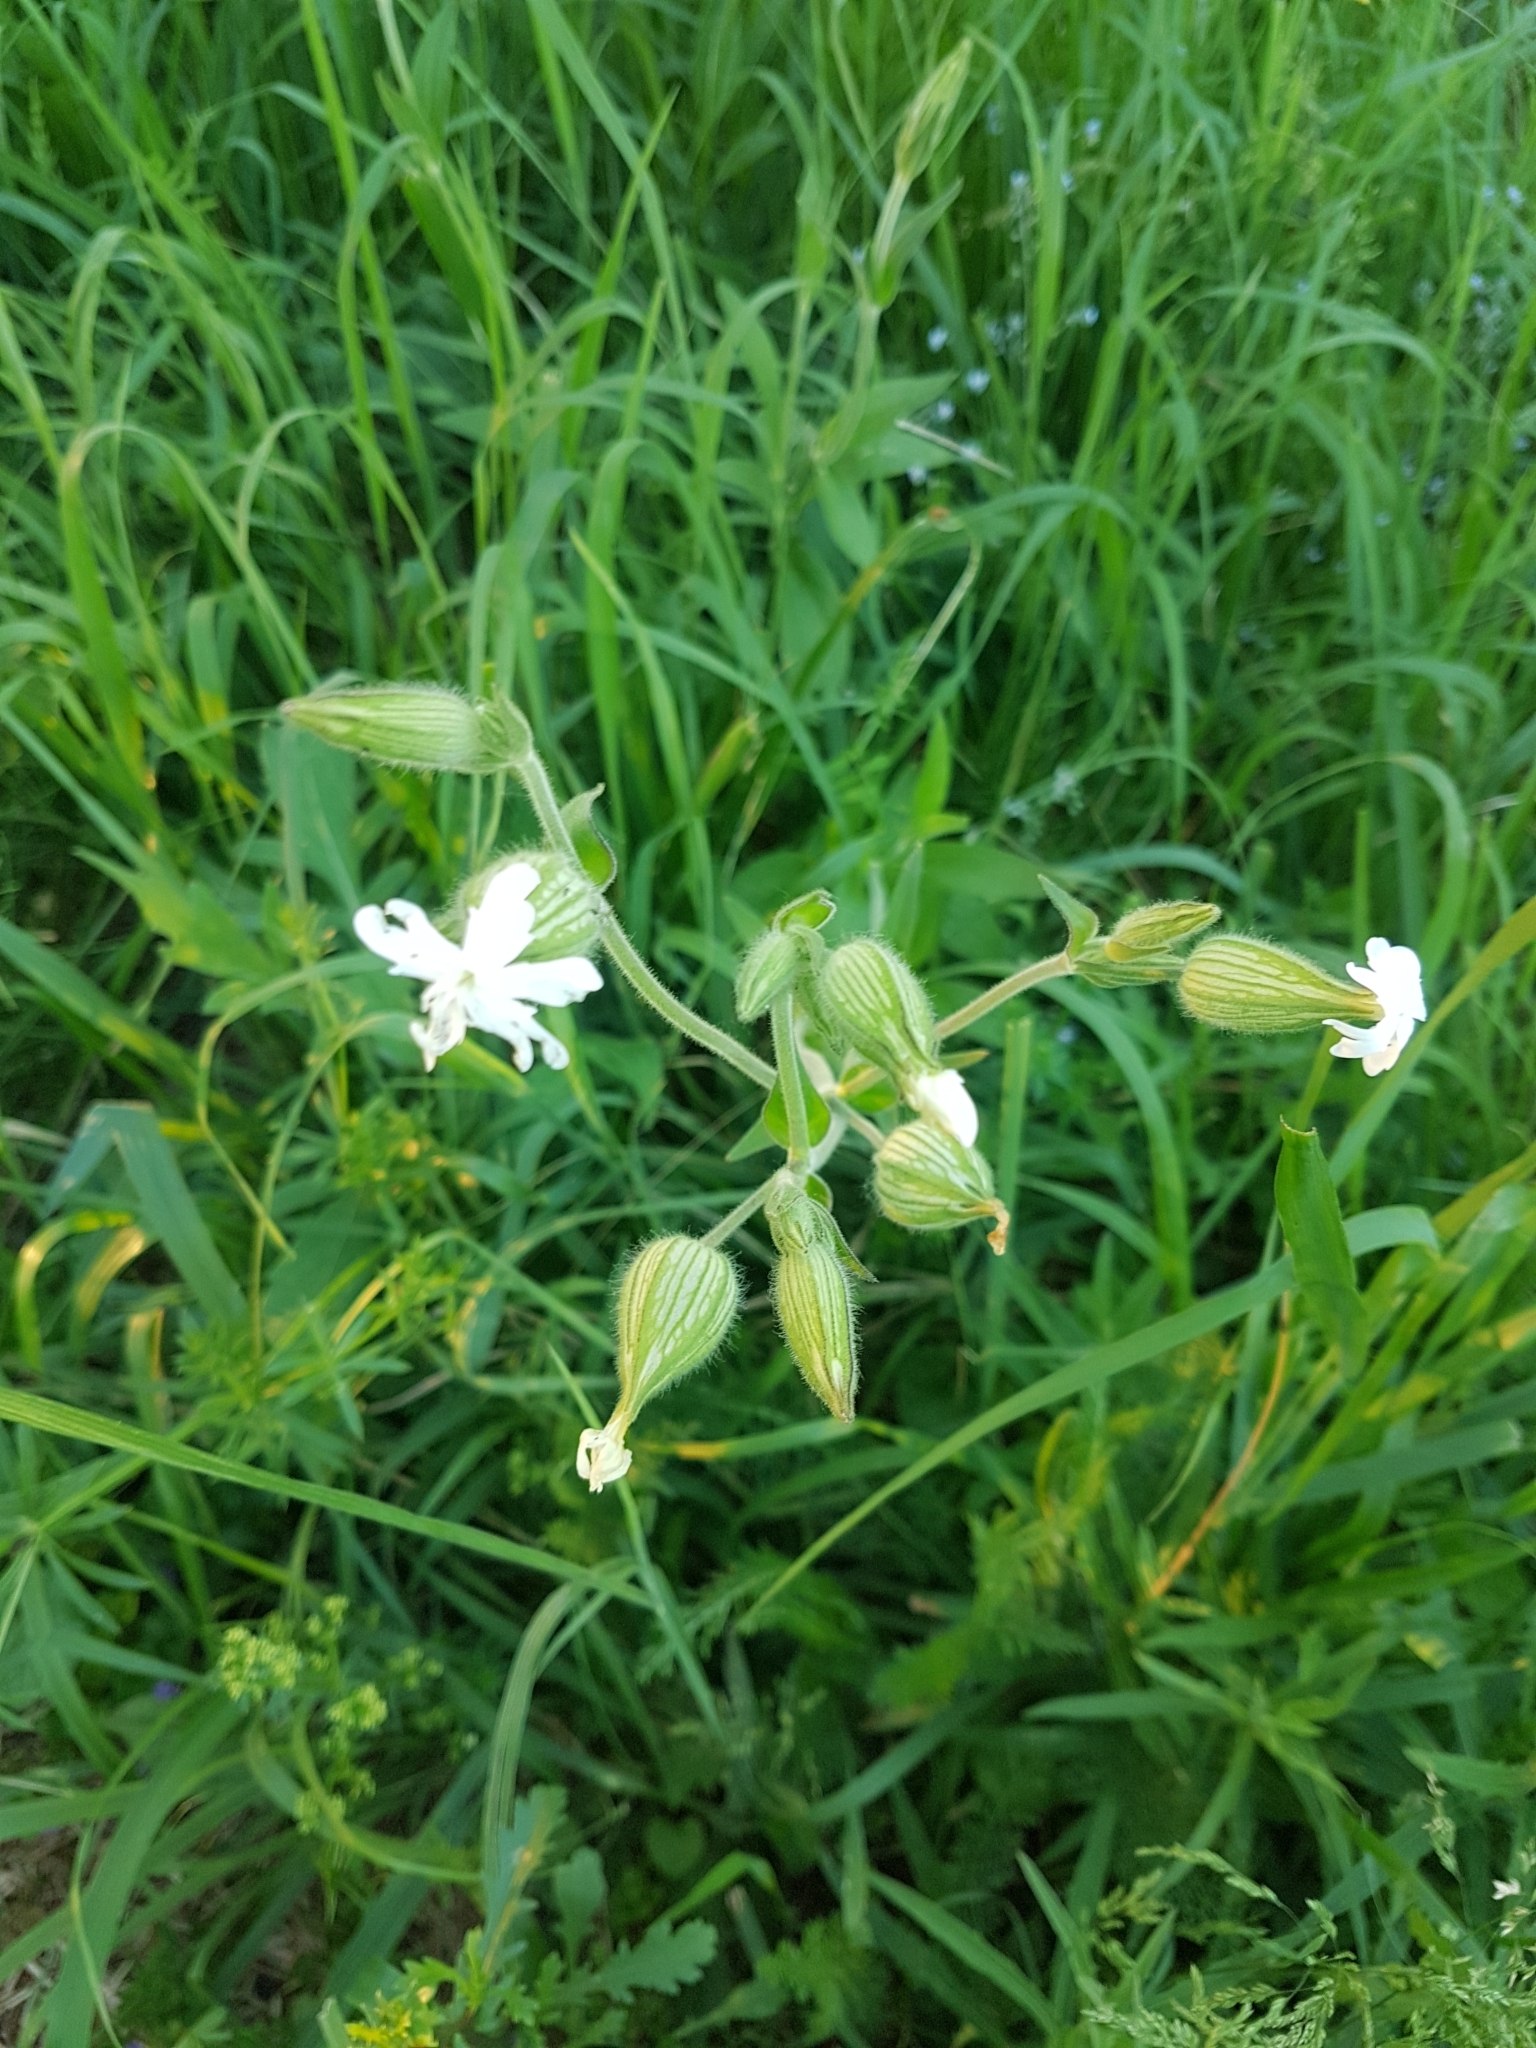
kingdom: Plantae
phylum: Tracheophyta
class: Magnoliopsida
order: Caryophyllales
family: Caryophyllaceae
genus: Silene
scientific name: Silene latifolia
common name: White campion
